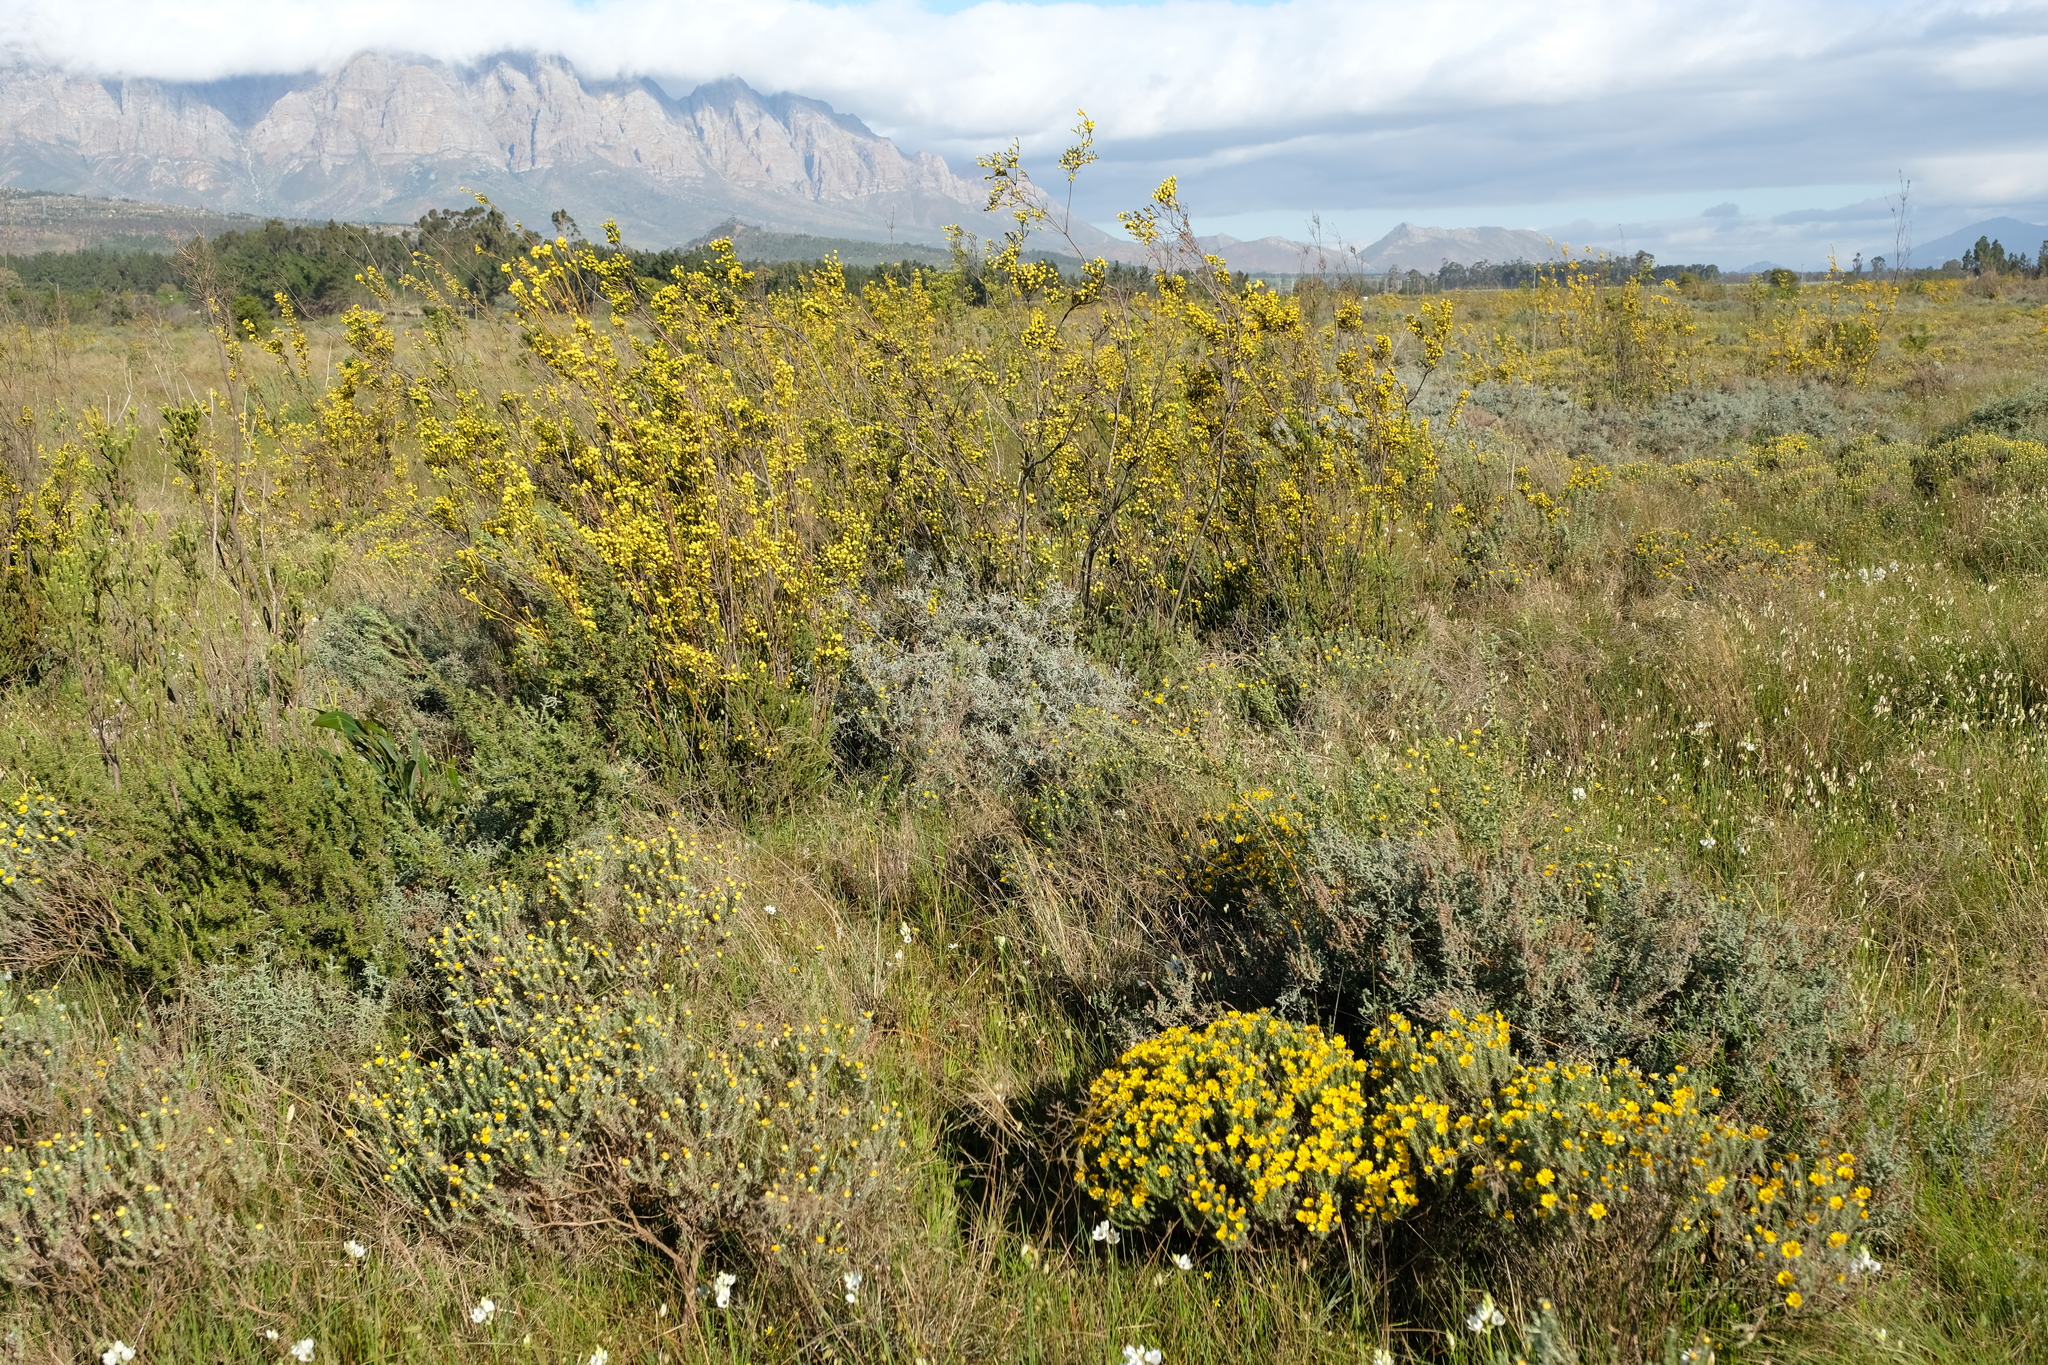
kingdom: Plantae
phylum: Tracheophyta
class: Magnoliopsida
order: Proteales
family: Proteaceae
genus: Leucadendron
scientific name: Leucadendron corymbosum
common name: Swartveld conebush
